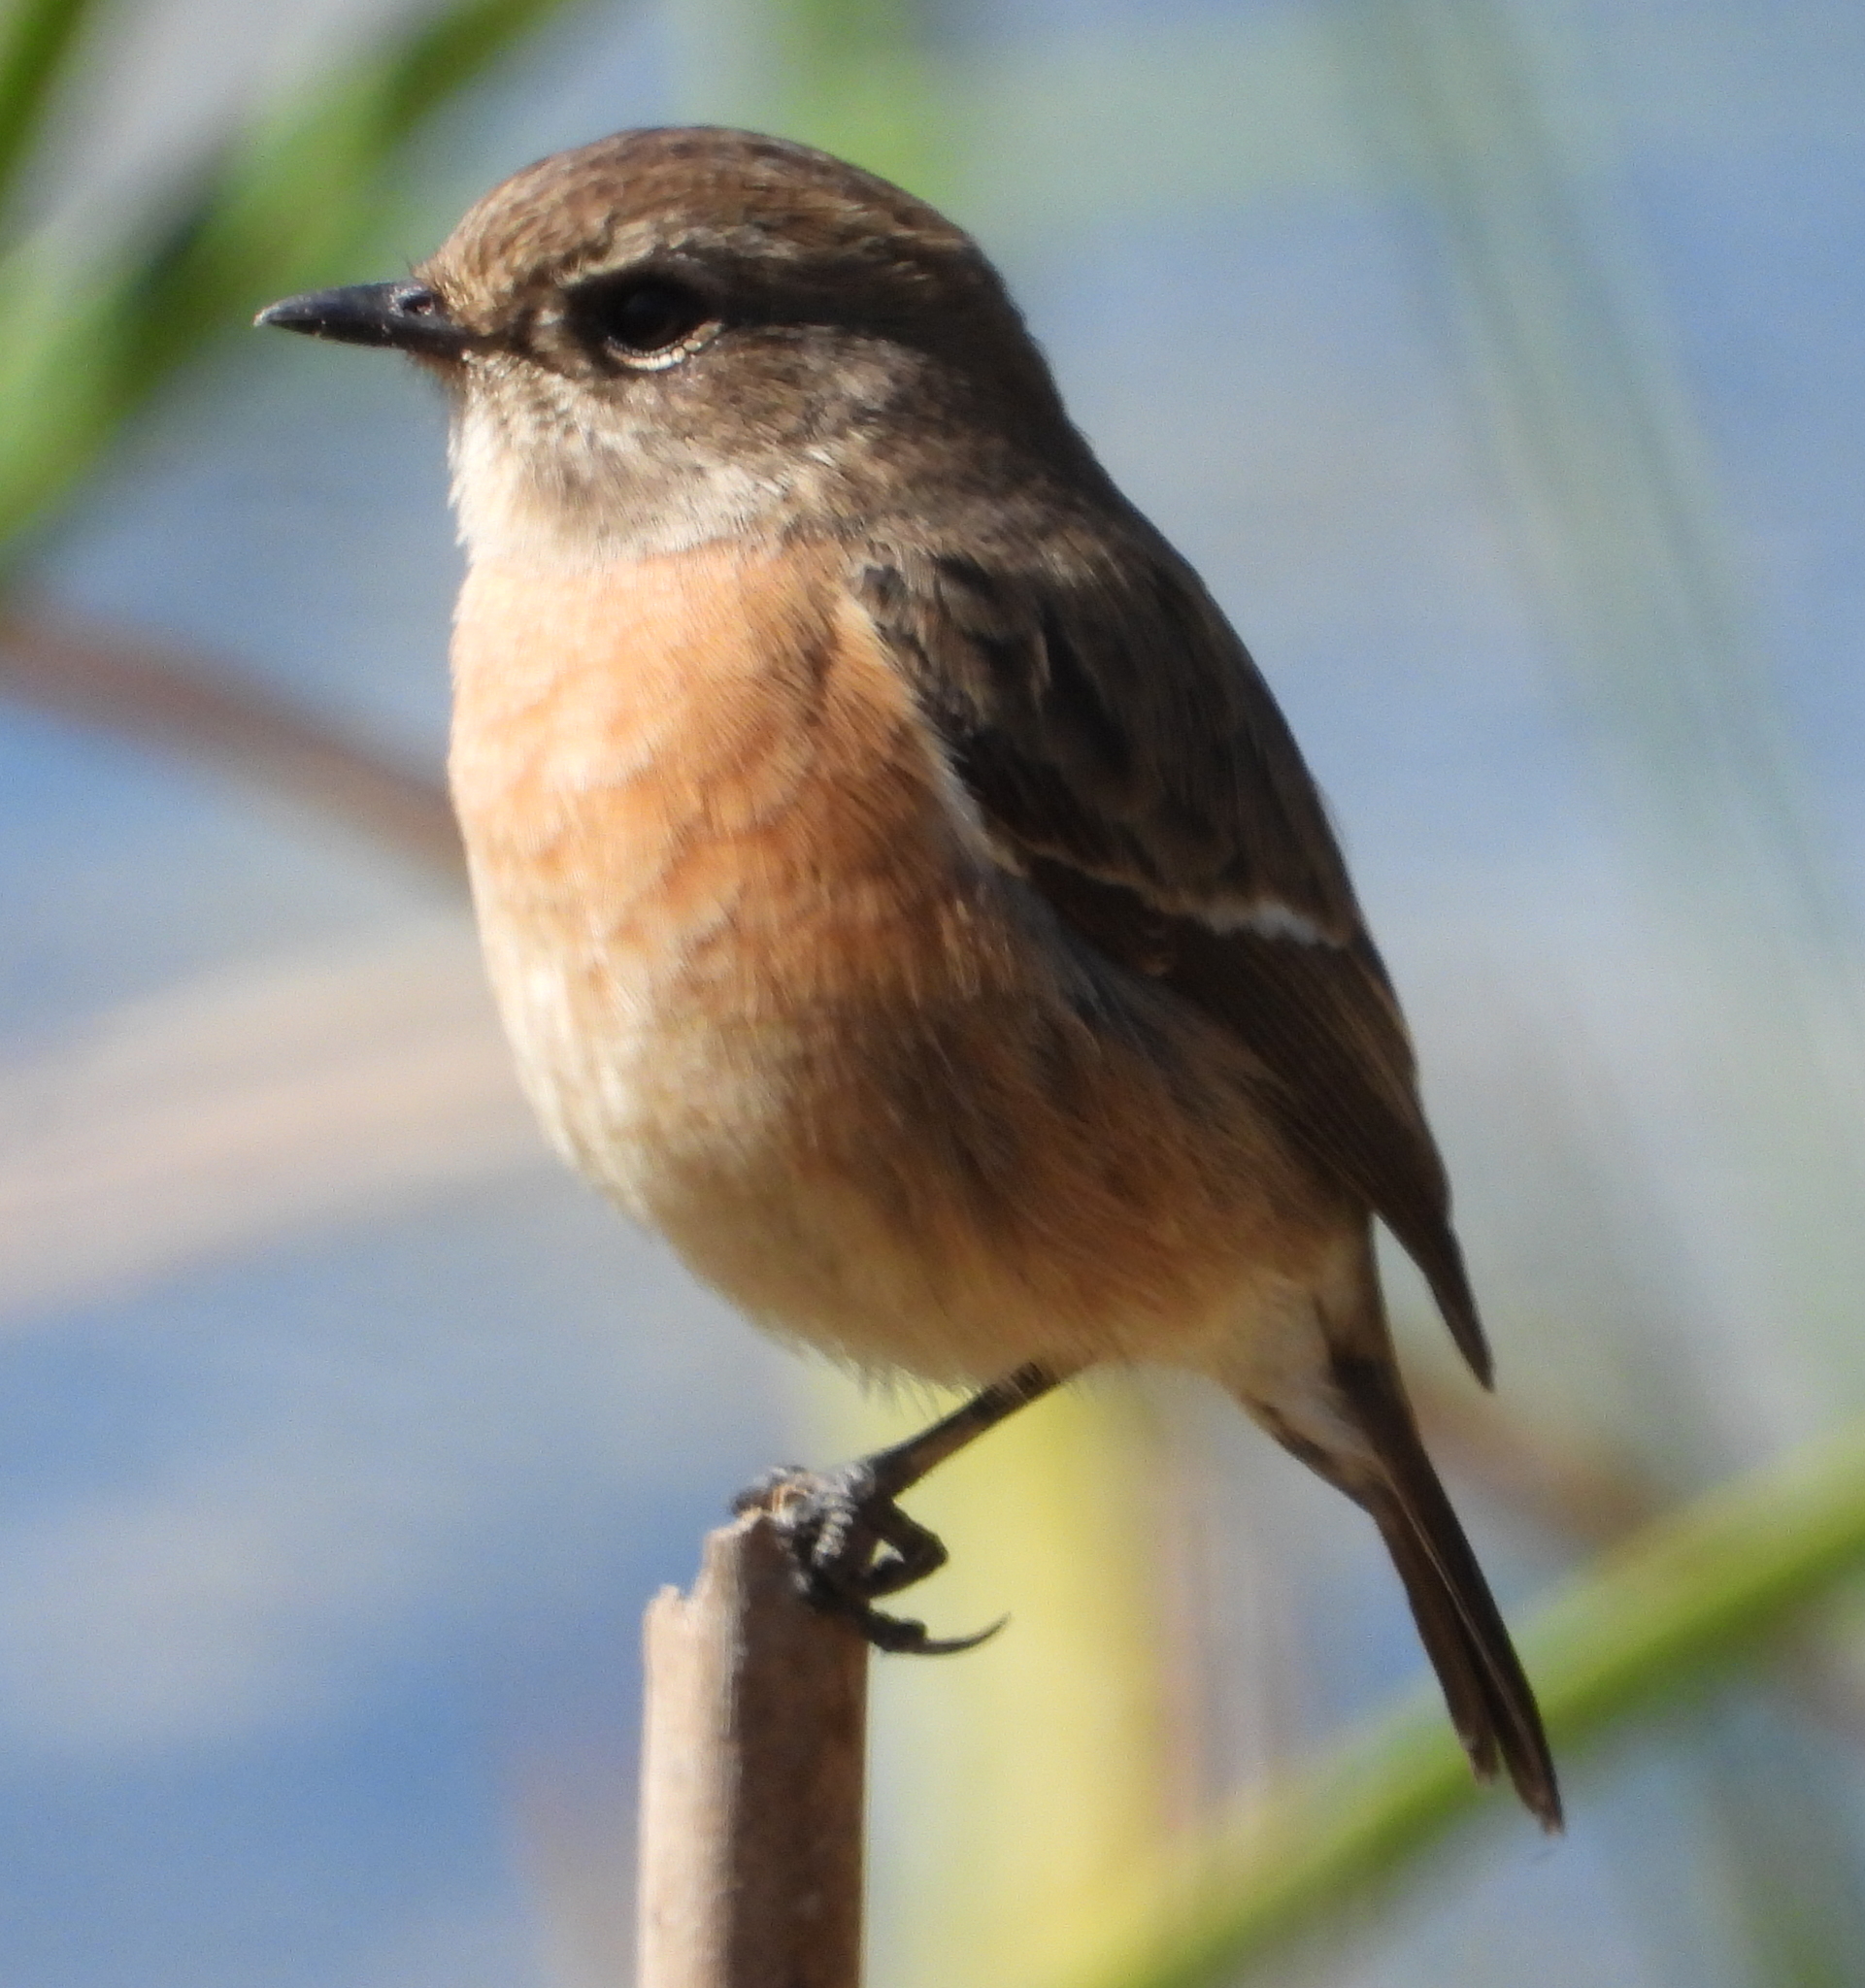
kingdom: Animalia
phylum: Chordata
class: Aves
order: Passeriformes
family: Muscicapidae
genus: Saxicola
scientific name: Saxicola torquatus
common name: African stonechat
